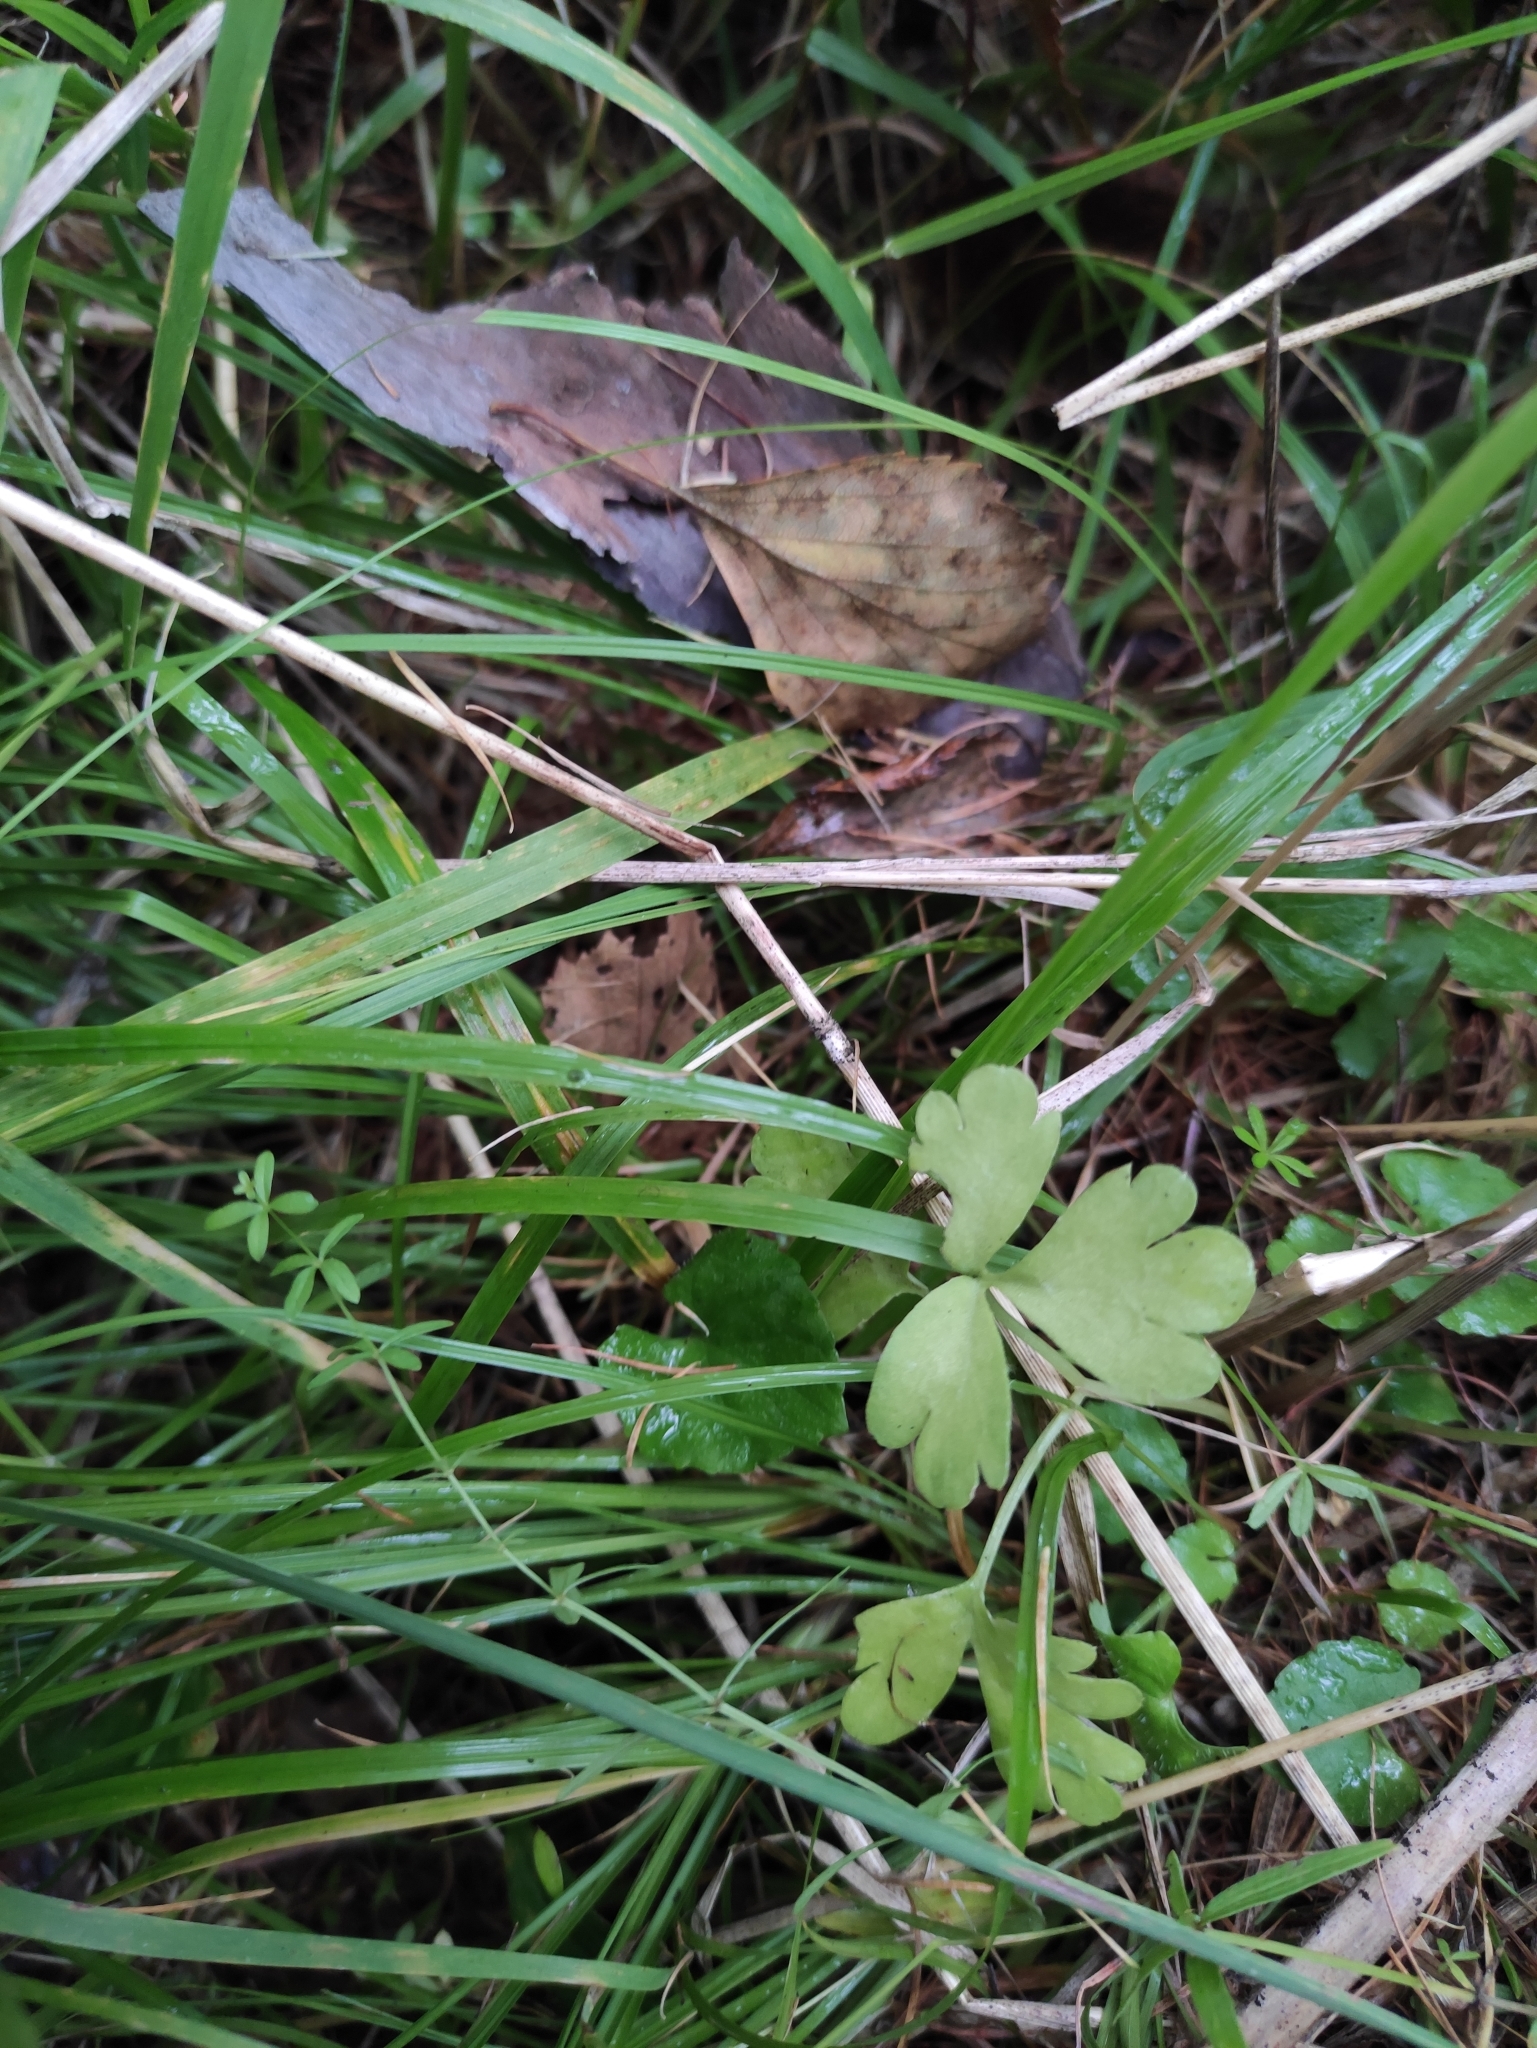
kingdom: Plantae
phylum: Tracheophyta
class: Magnoliopsida
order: Dipsacales
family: Viburnaceae
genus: Adoxa
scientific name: Adoxa moschatellina
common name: Moschatel
